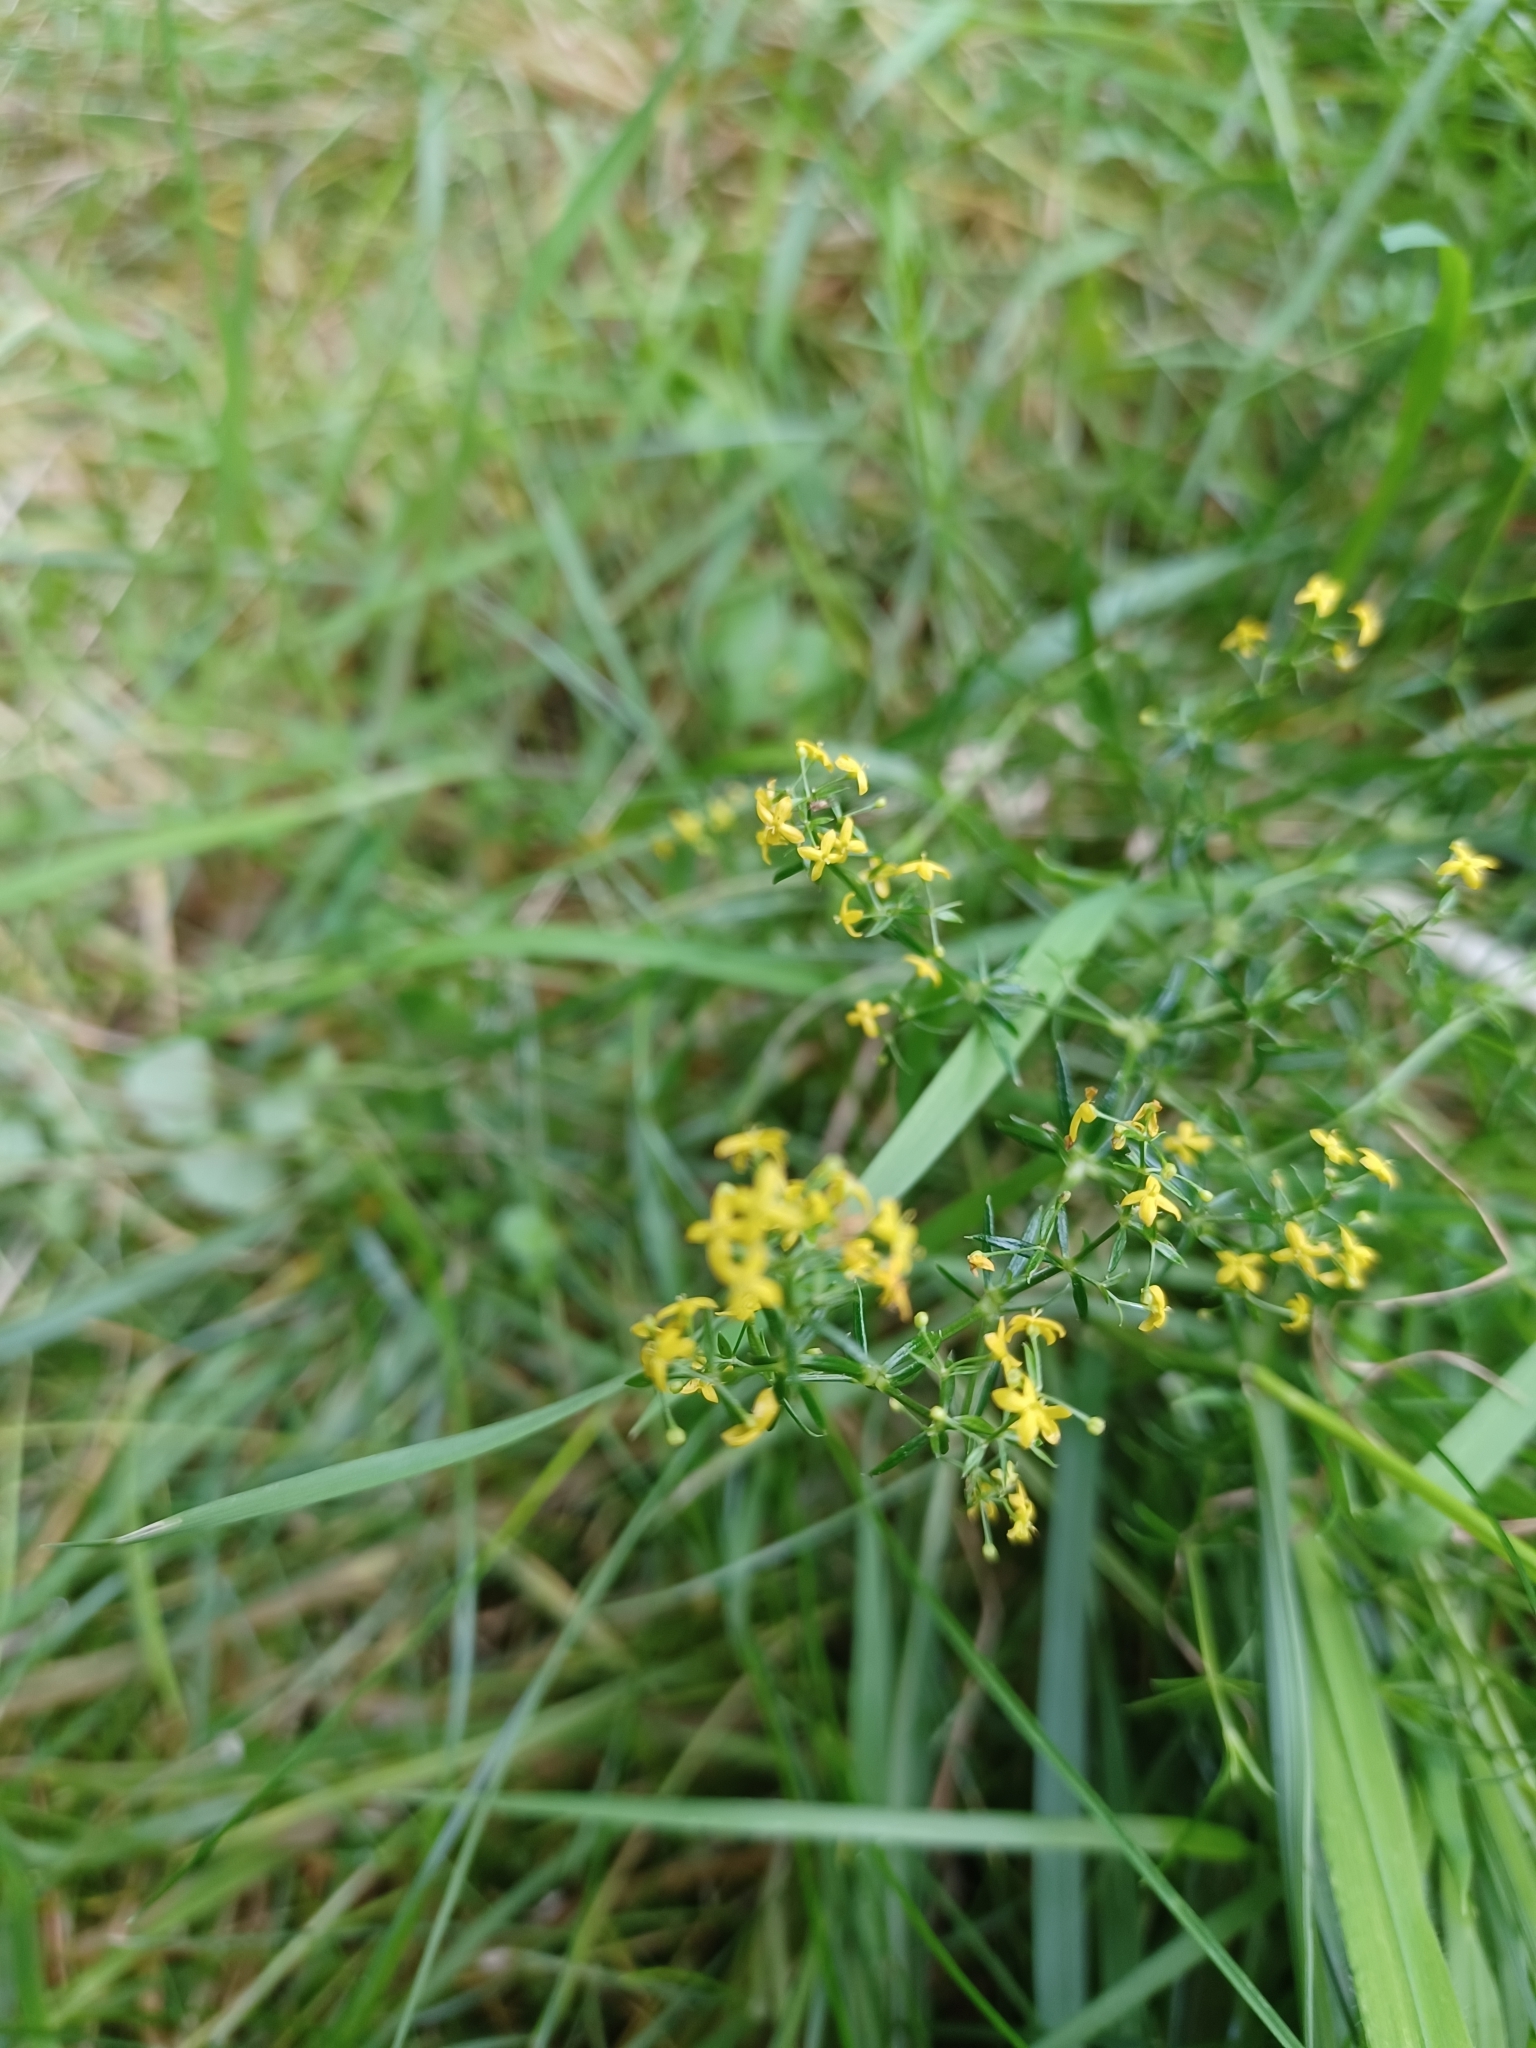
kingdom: Plantae
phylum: Tracheophyta
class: Magnoliopsida
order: Gentianales
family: Rubiaceae
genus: Galium
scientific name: Galium verum
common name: Lady's bedstraw
